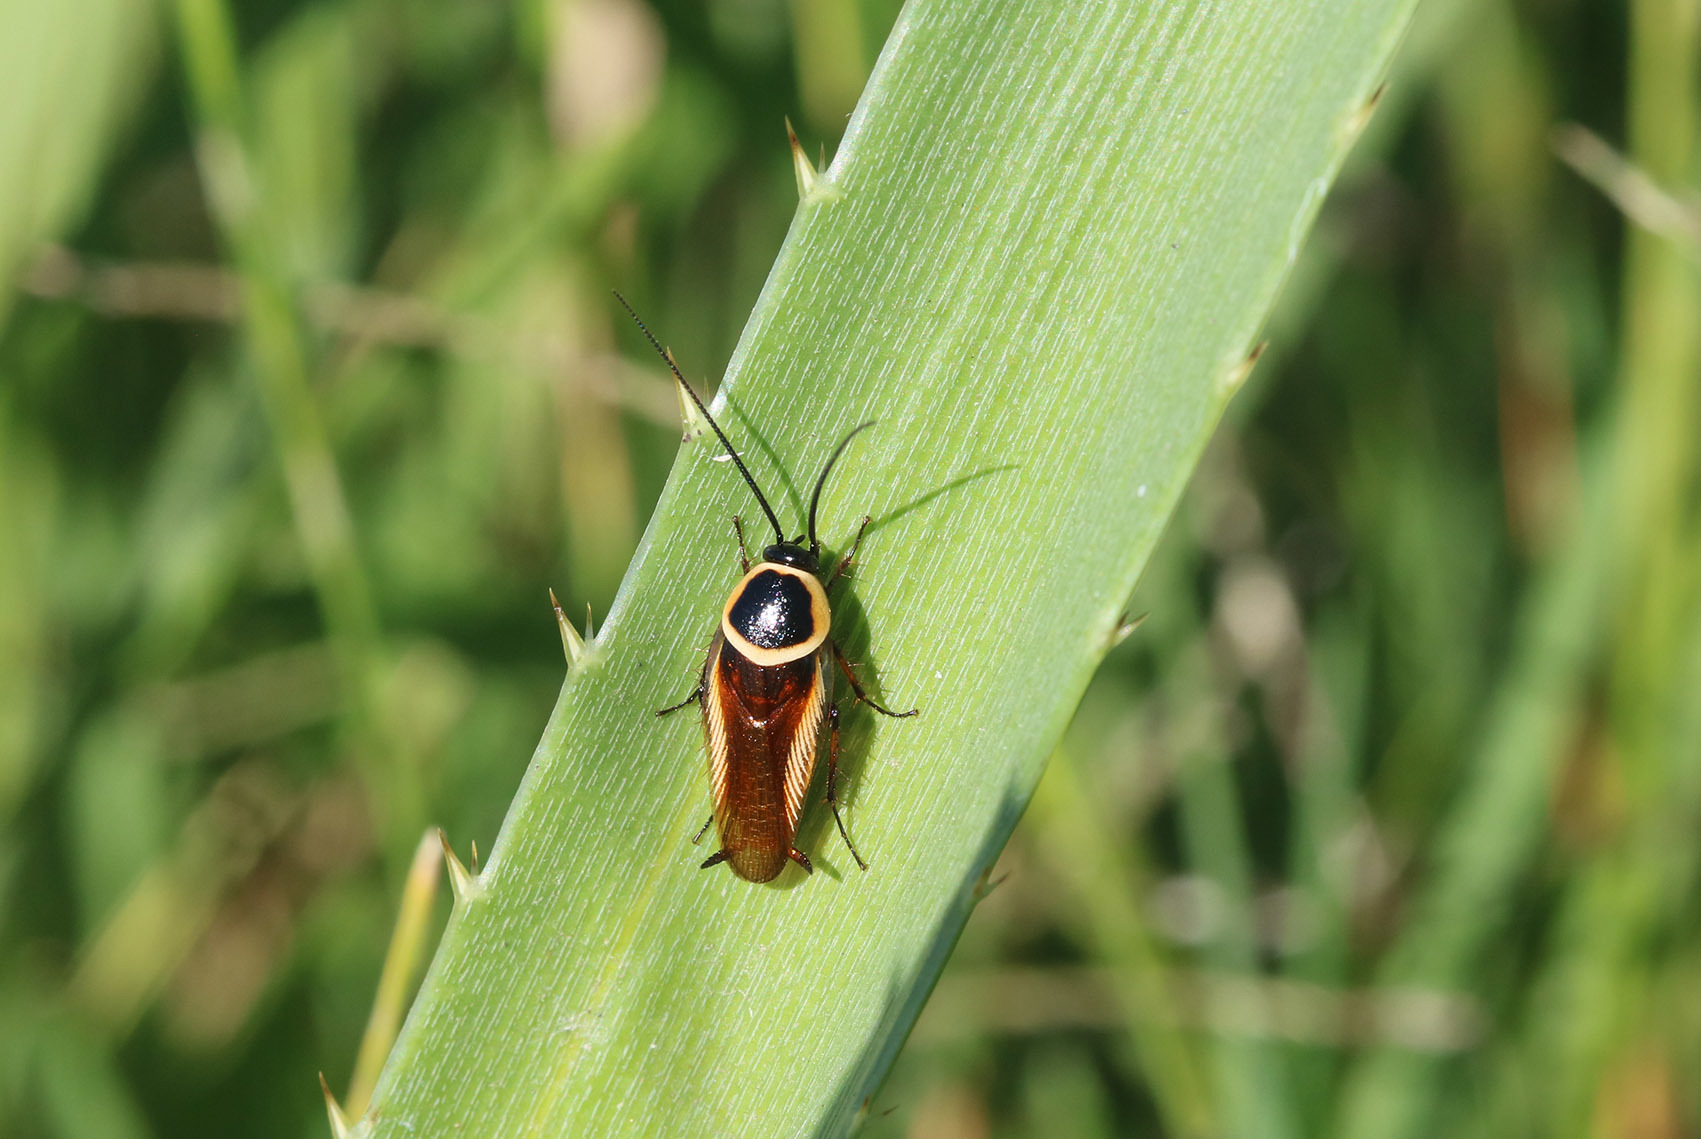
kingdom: Animalia
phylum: Arthropoda
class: Insecta
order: Blattodea
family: Ectobiidae
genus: Pseudomops
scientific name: Pseudomops neglectus
